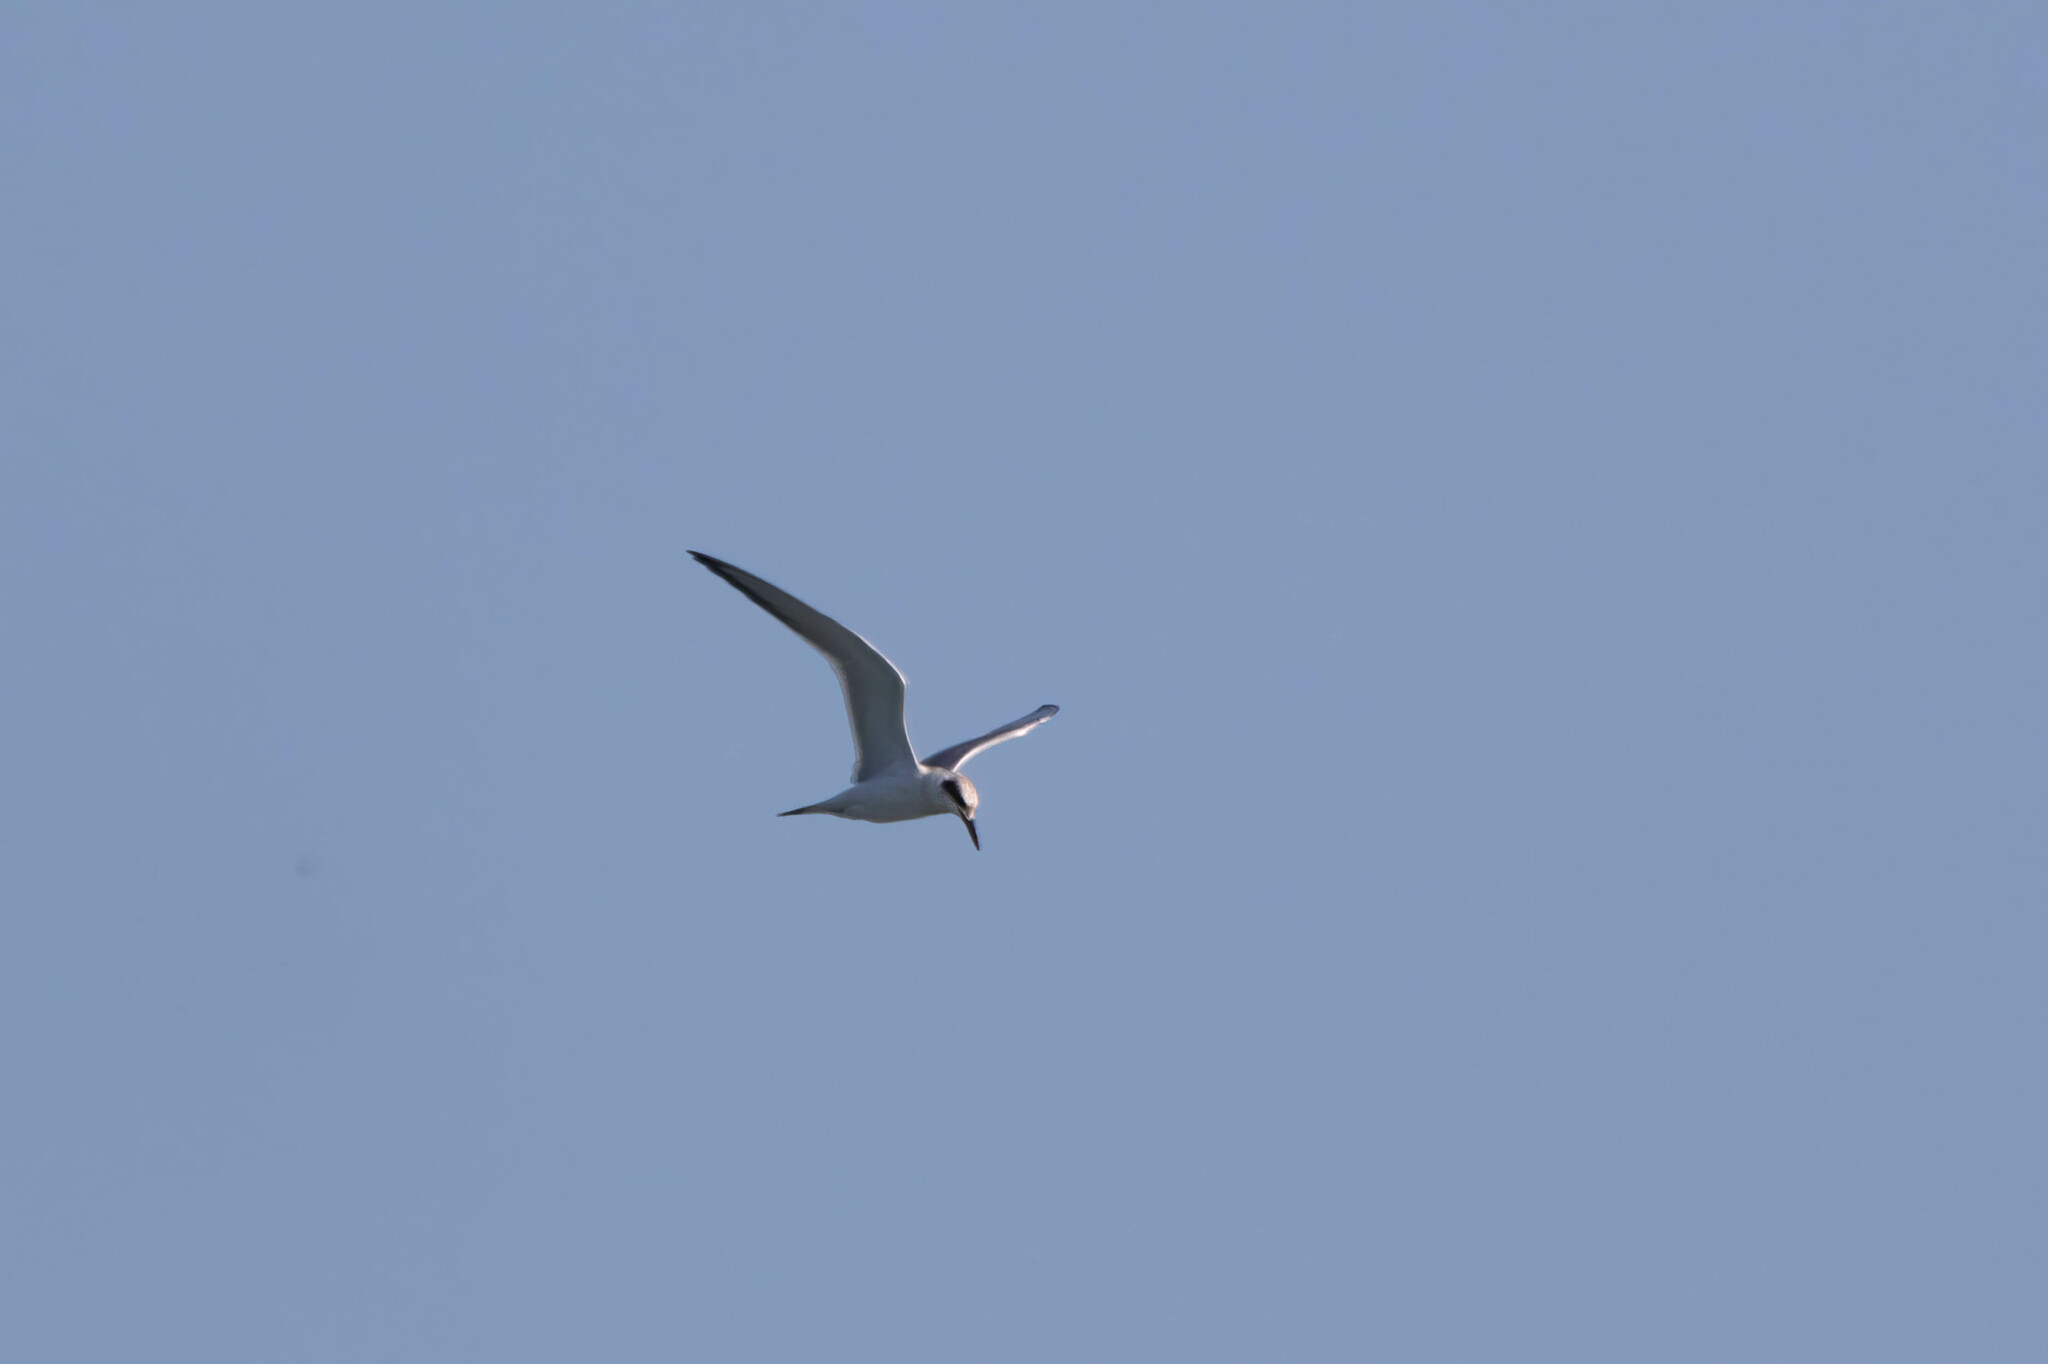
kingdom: Animalia
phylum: Chordata
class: Aves
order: Charadriiformes
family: Laridae
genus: Sterna
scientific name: Sterna forsteri
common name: Forster's tern
